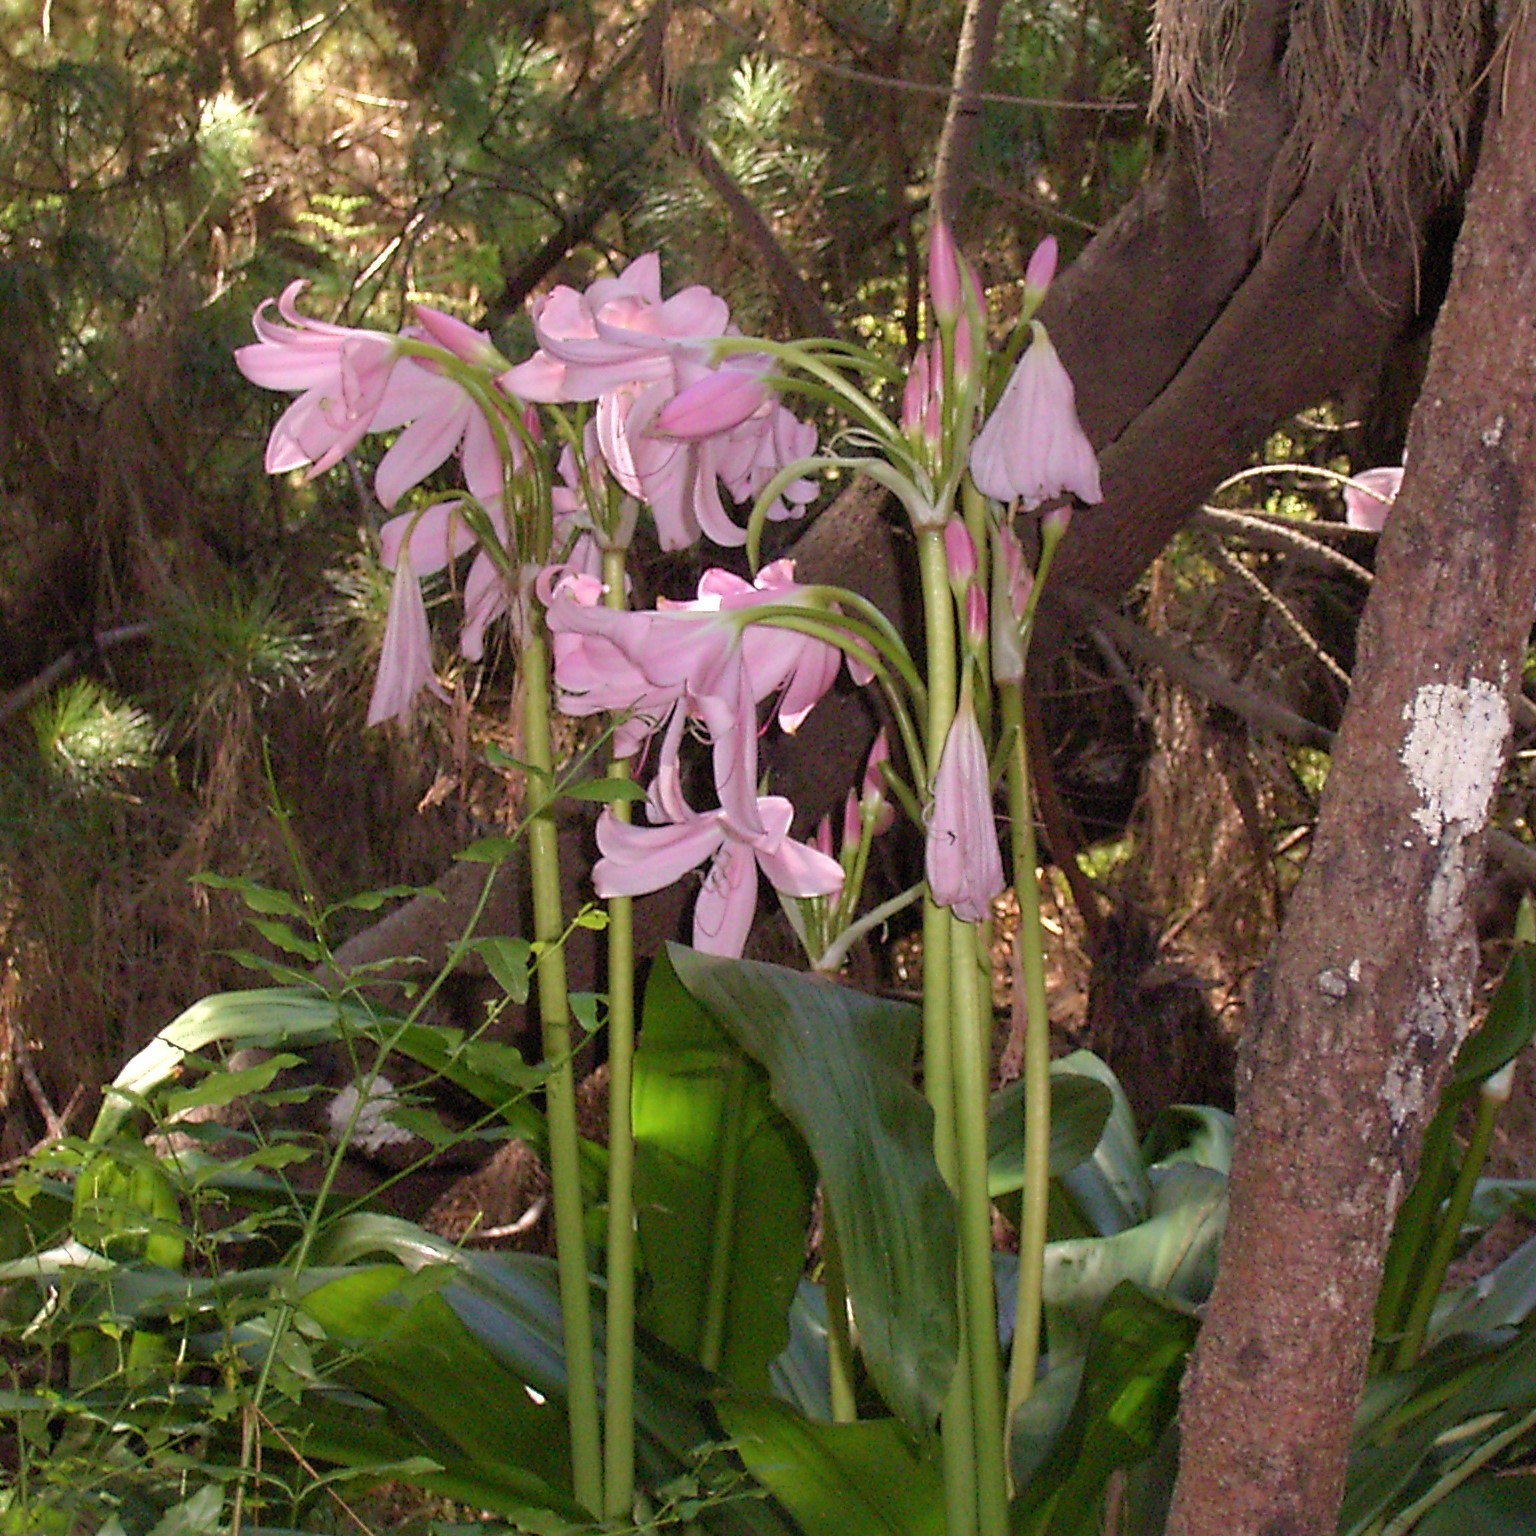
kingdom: Plantae
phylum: Tracheophyta
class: Liliopsida
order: Asparagales
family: Amaryllidaceae
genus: Crinum
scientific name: Crinum moorei
